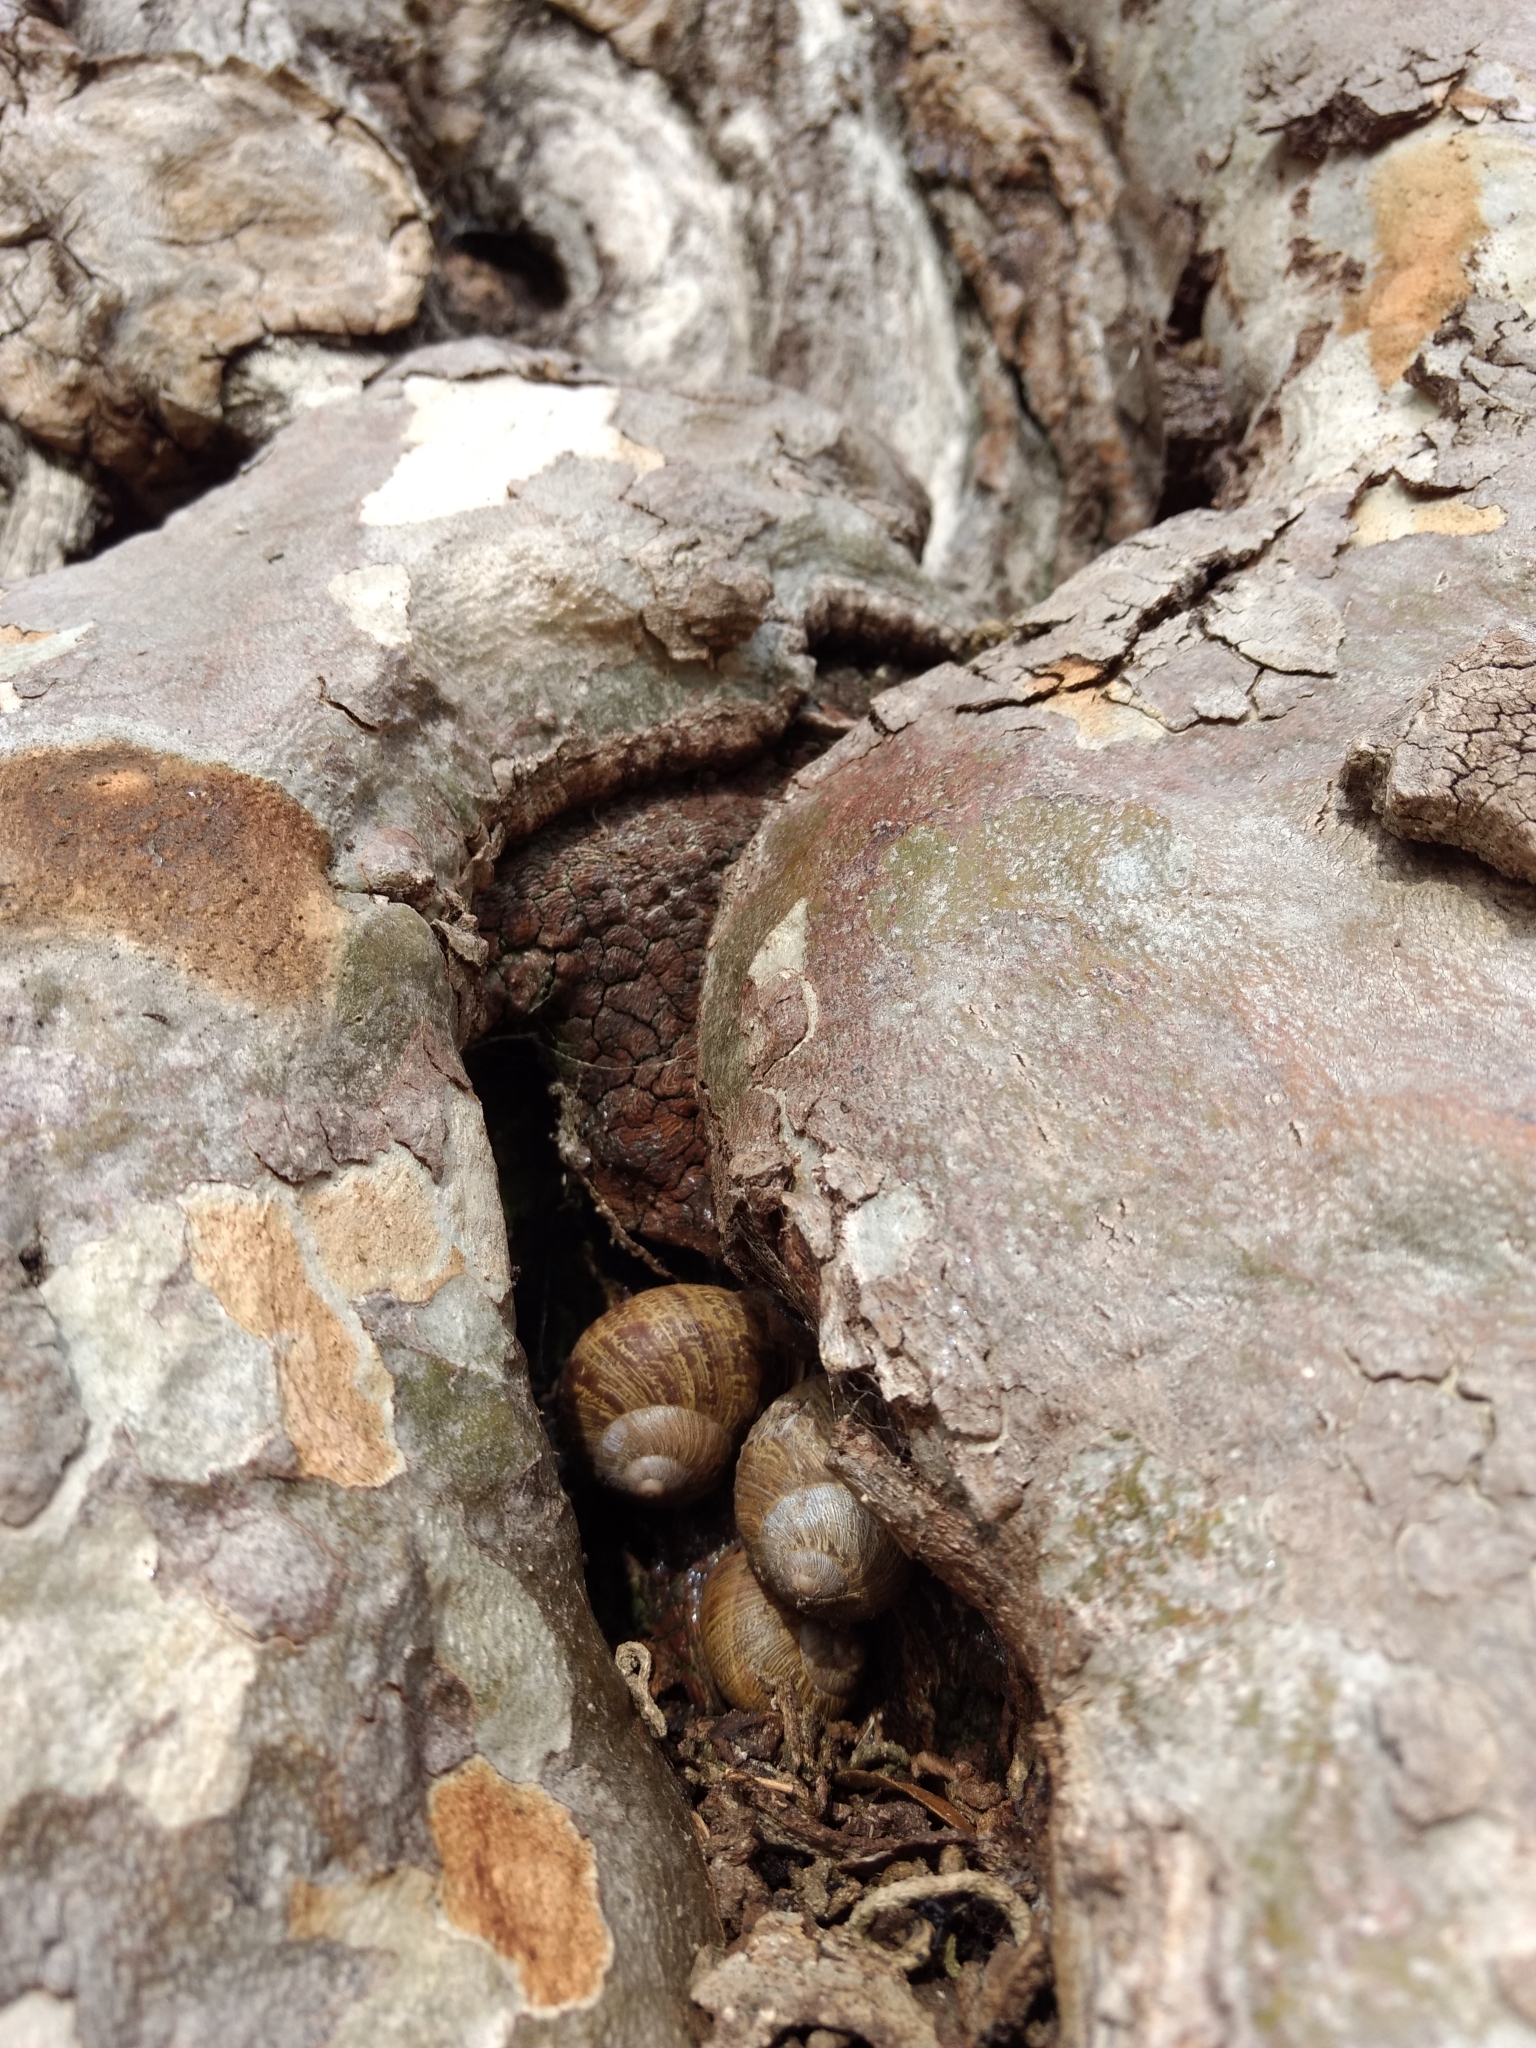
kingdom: Animalia
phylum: Mollusca
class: Gastropoda
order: Stylommatophora
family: Helicidae
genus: Cornu
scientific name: Cornu aspersum
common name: Brown garden snail
